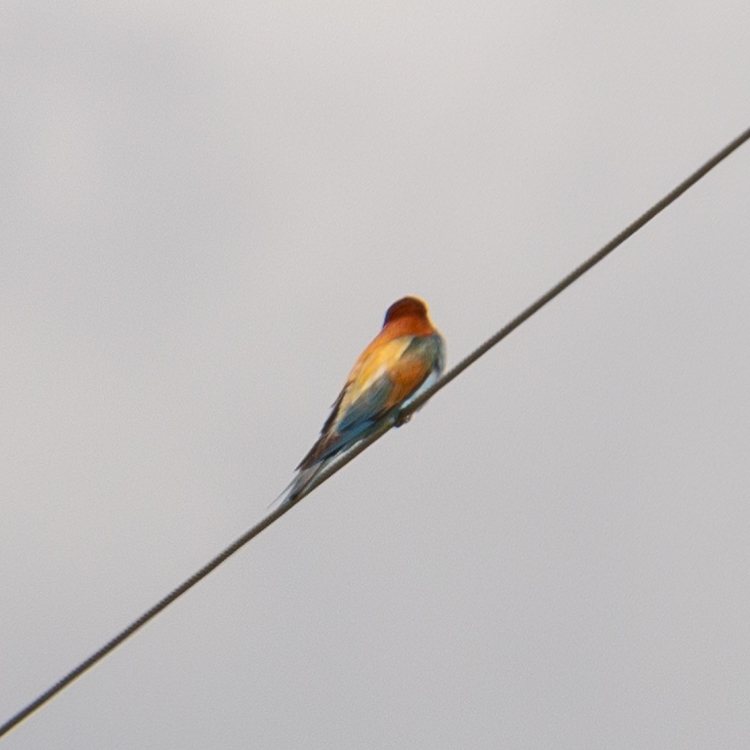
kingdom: Animalia
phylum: Chordata
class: Aves
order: Coraciiformes
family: Meropidae
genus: Merops
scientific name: Merops apiaster
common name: European bee-eater
